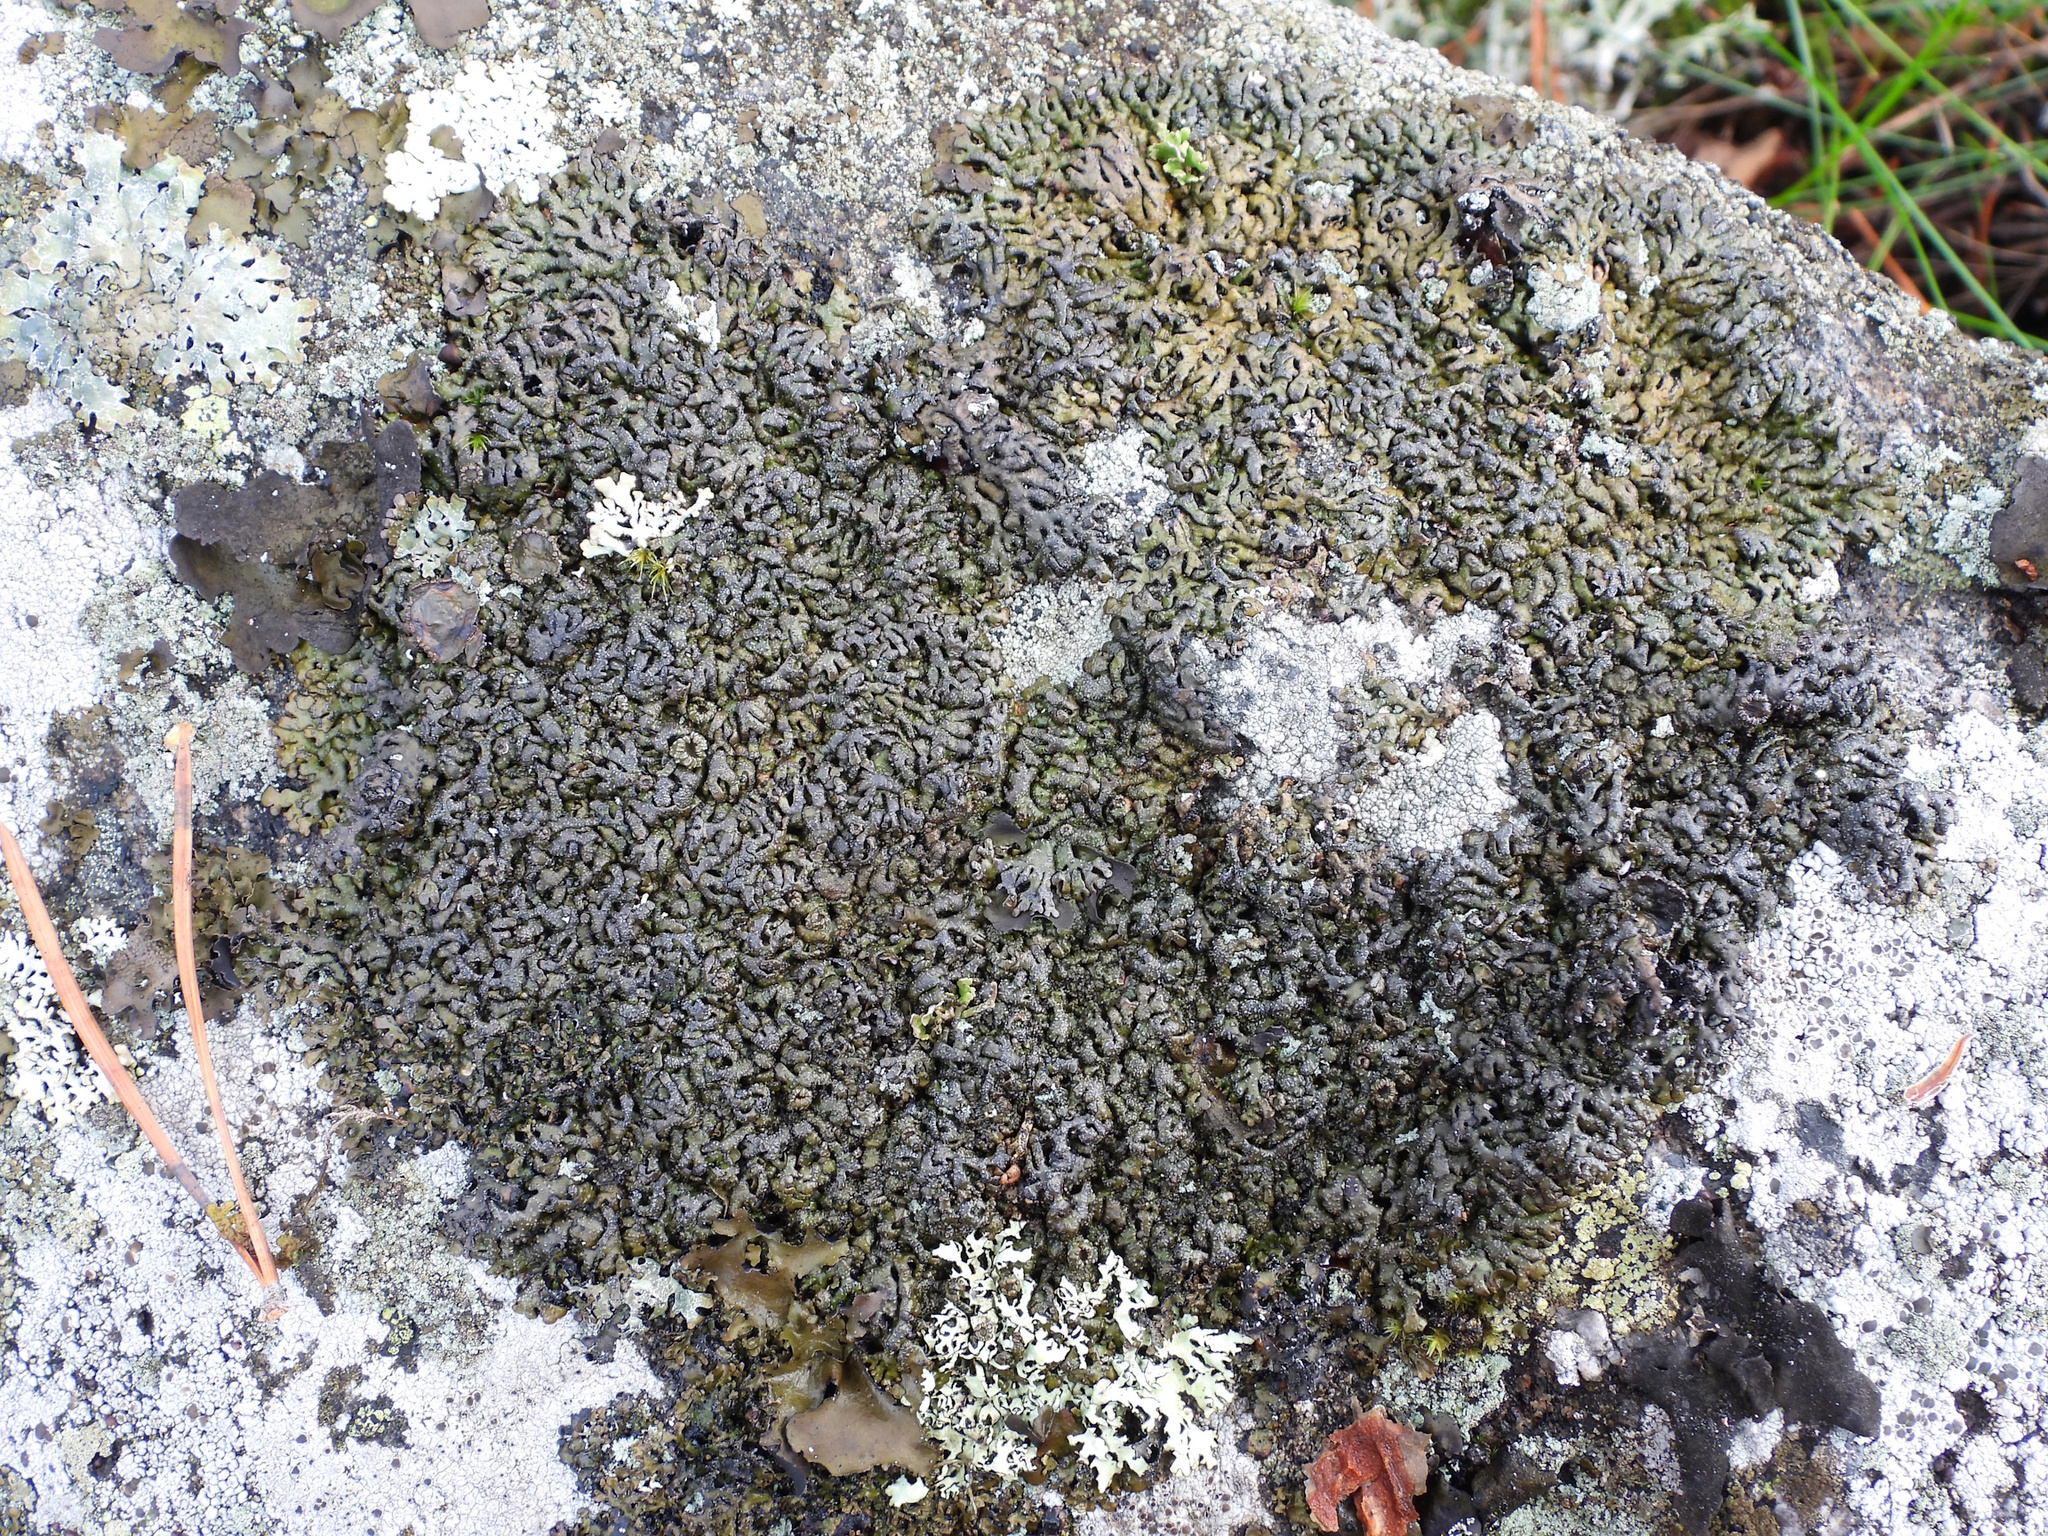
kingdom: Fungi
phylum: Ascomycota
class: Lecanoromycetes
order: Lecanorales
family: Parmeliaceae
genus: Melanelia
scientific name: Melanelia stygia
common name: Alpine camouflage lichen
